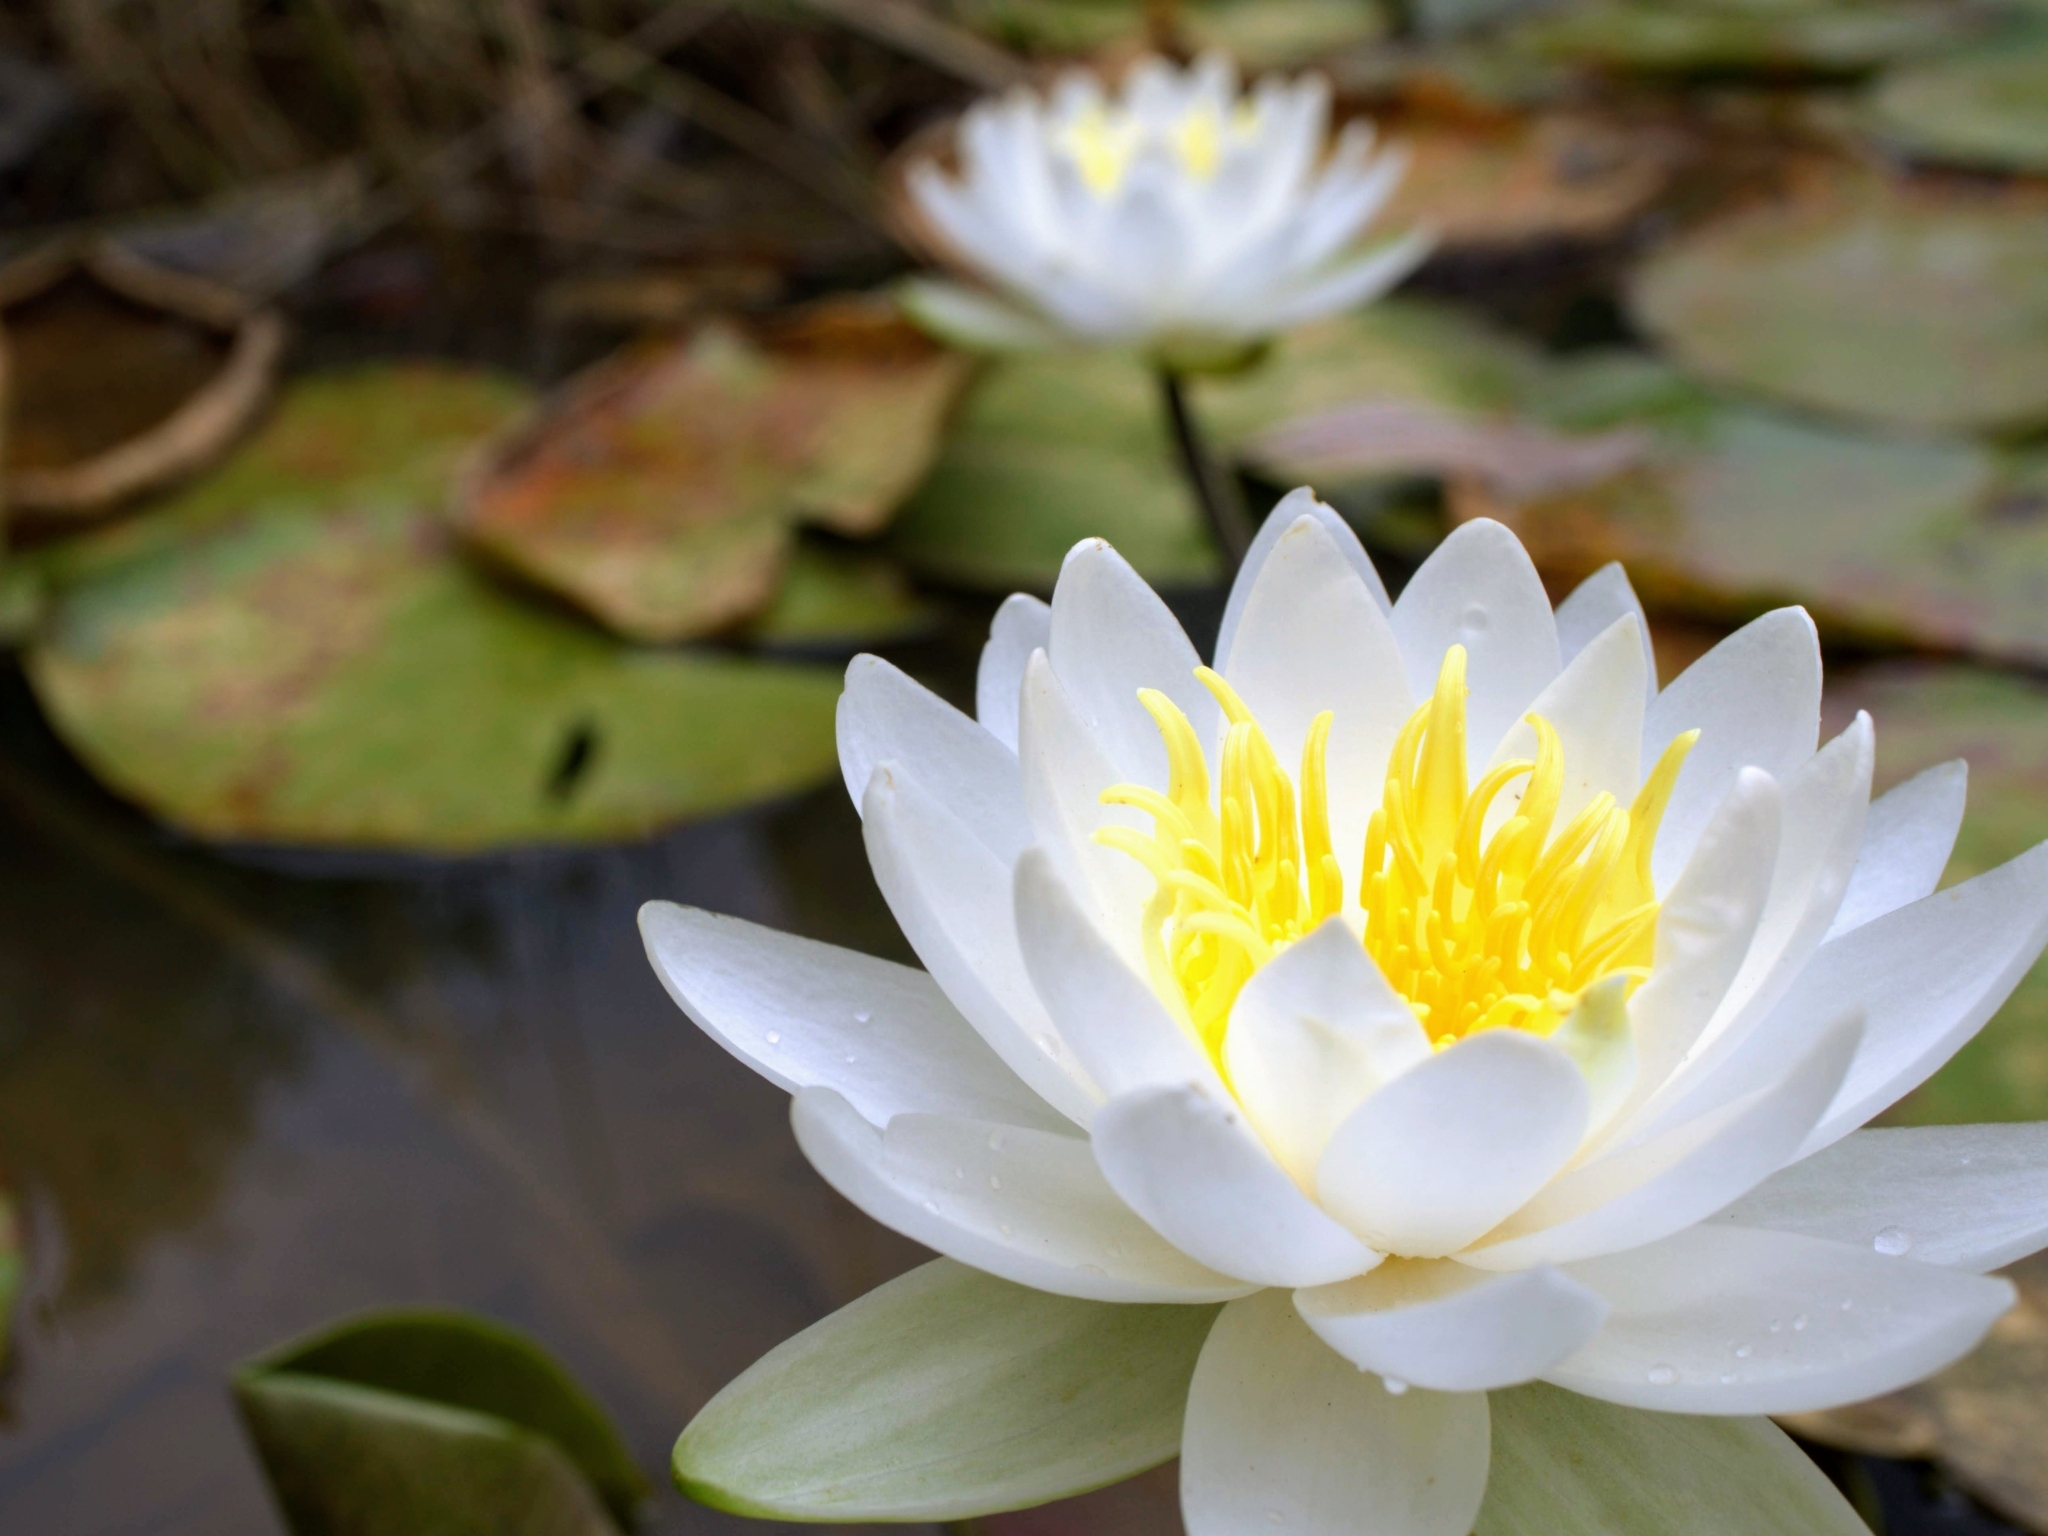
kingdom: Plantae
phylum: Tracheophyta
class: Magnoliopsida
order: Nymphaeales
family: Nymphaeaceae
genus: Nymphaea
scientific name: Nymphaea odorata
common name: Fragrant water-lily
